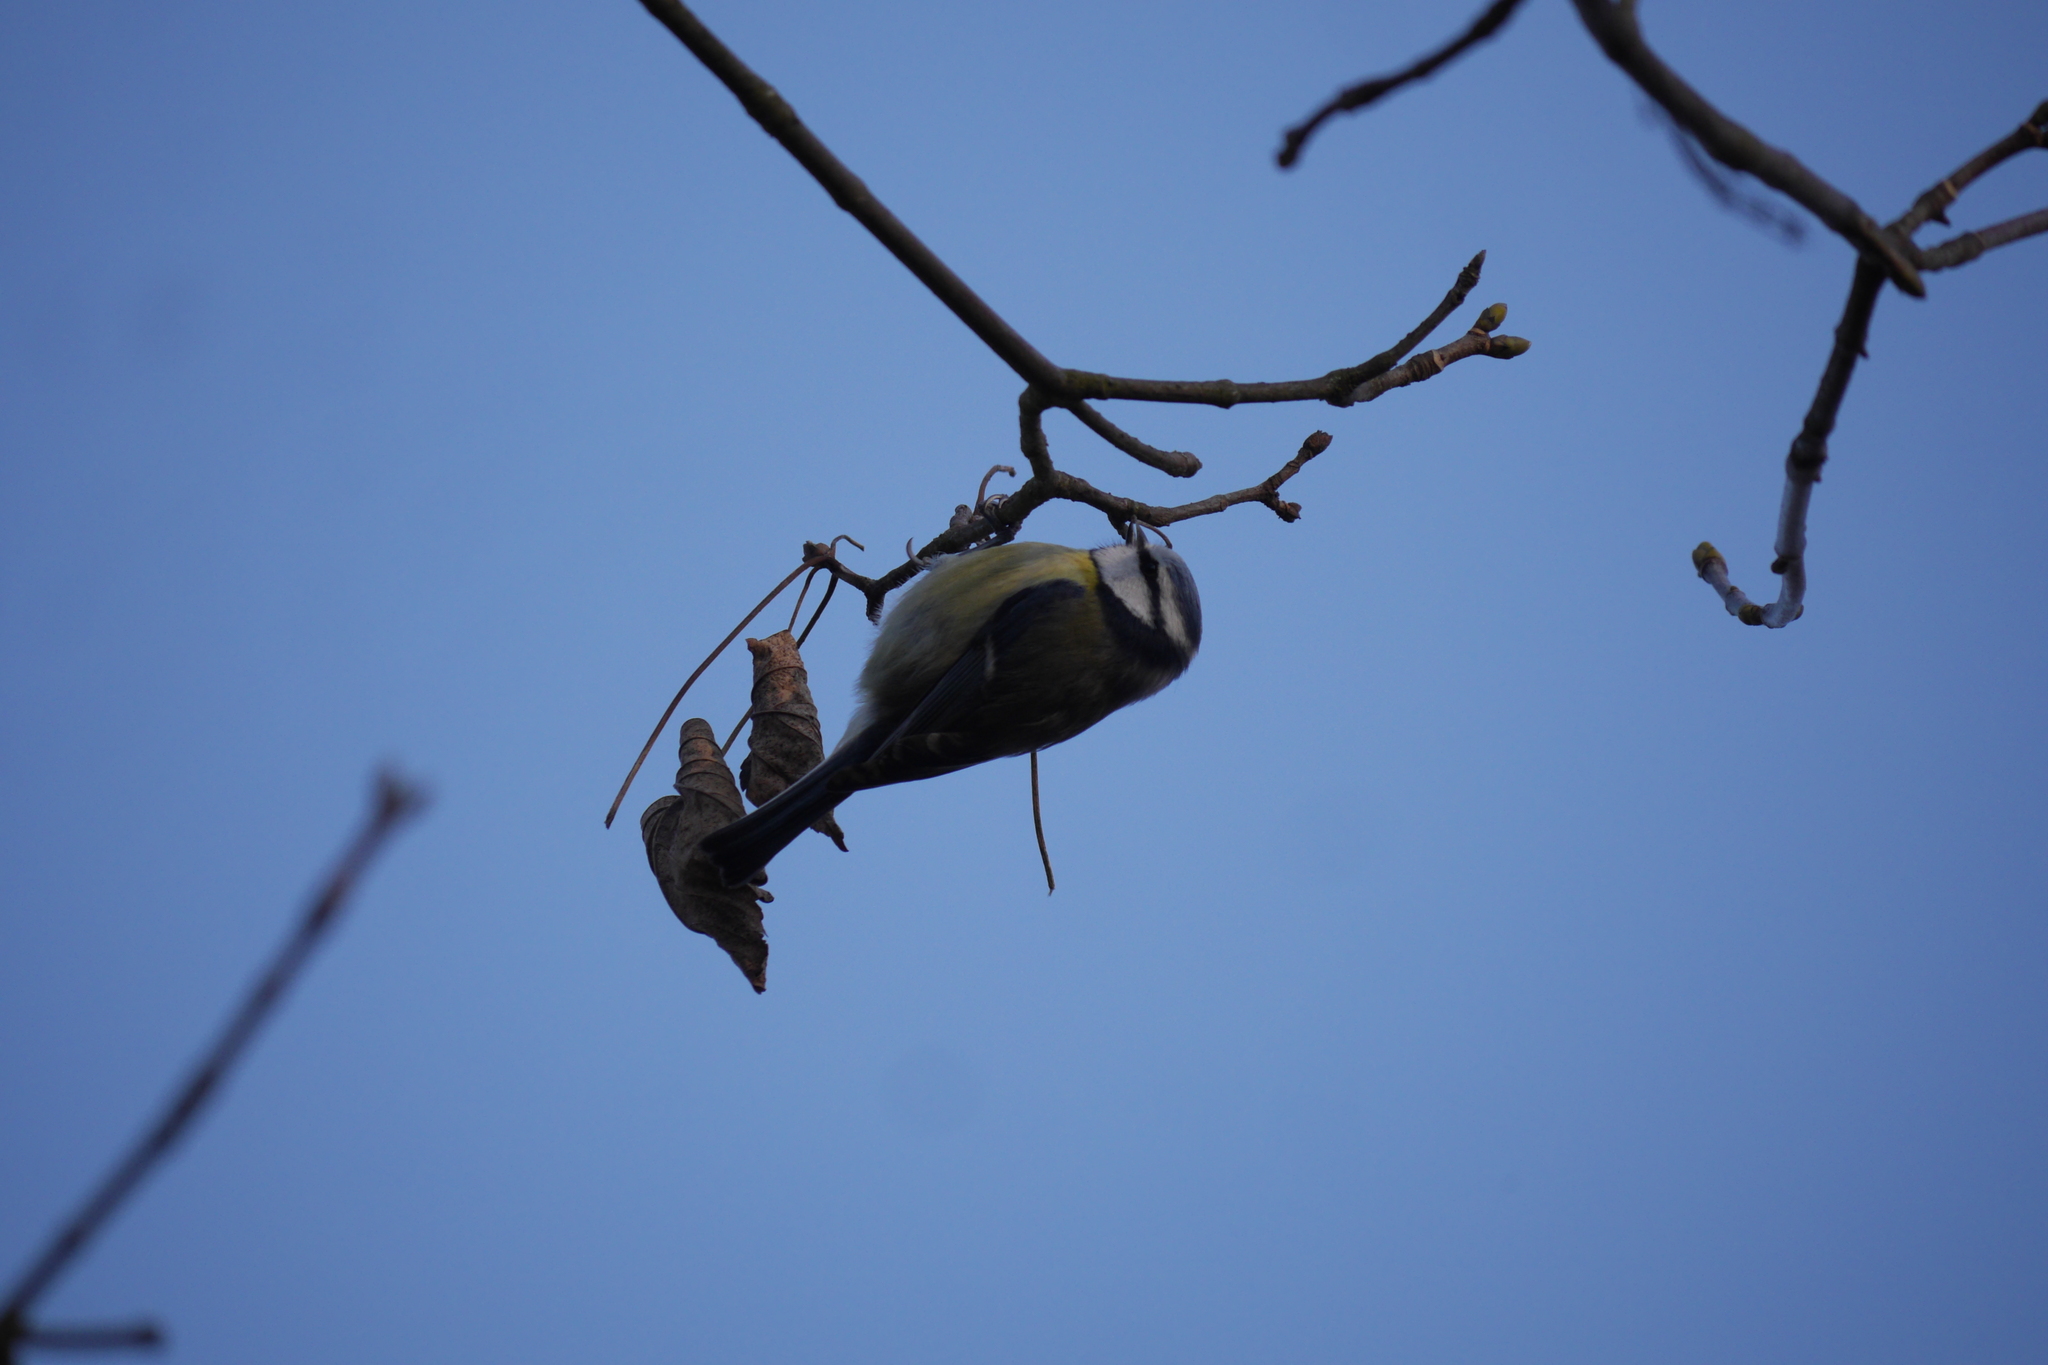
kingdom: Animalia
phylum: Chordata
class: Aves
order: Passeriformes
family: Paridae
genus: Cyanistes
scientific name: Cyanistes caeruleus
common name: Eurasian blue tit
